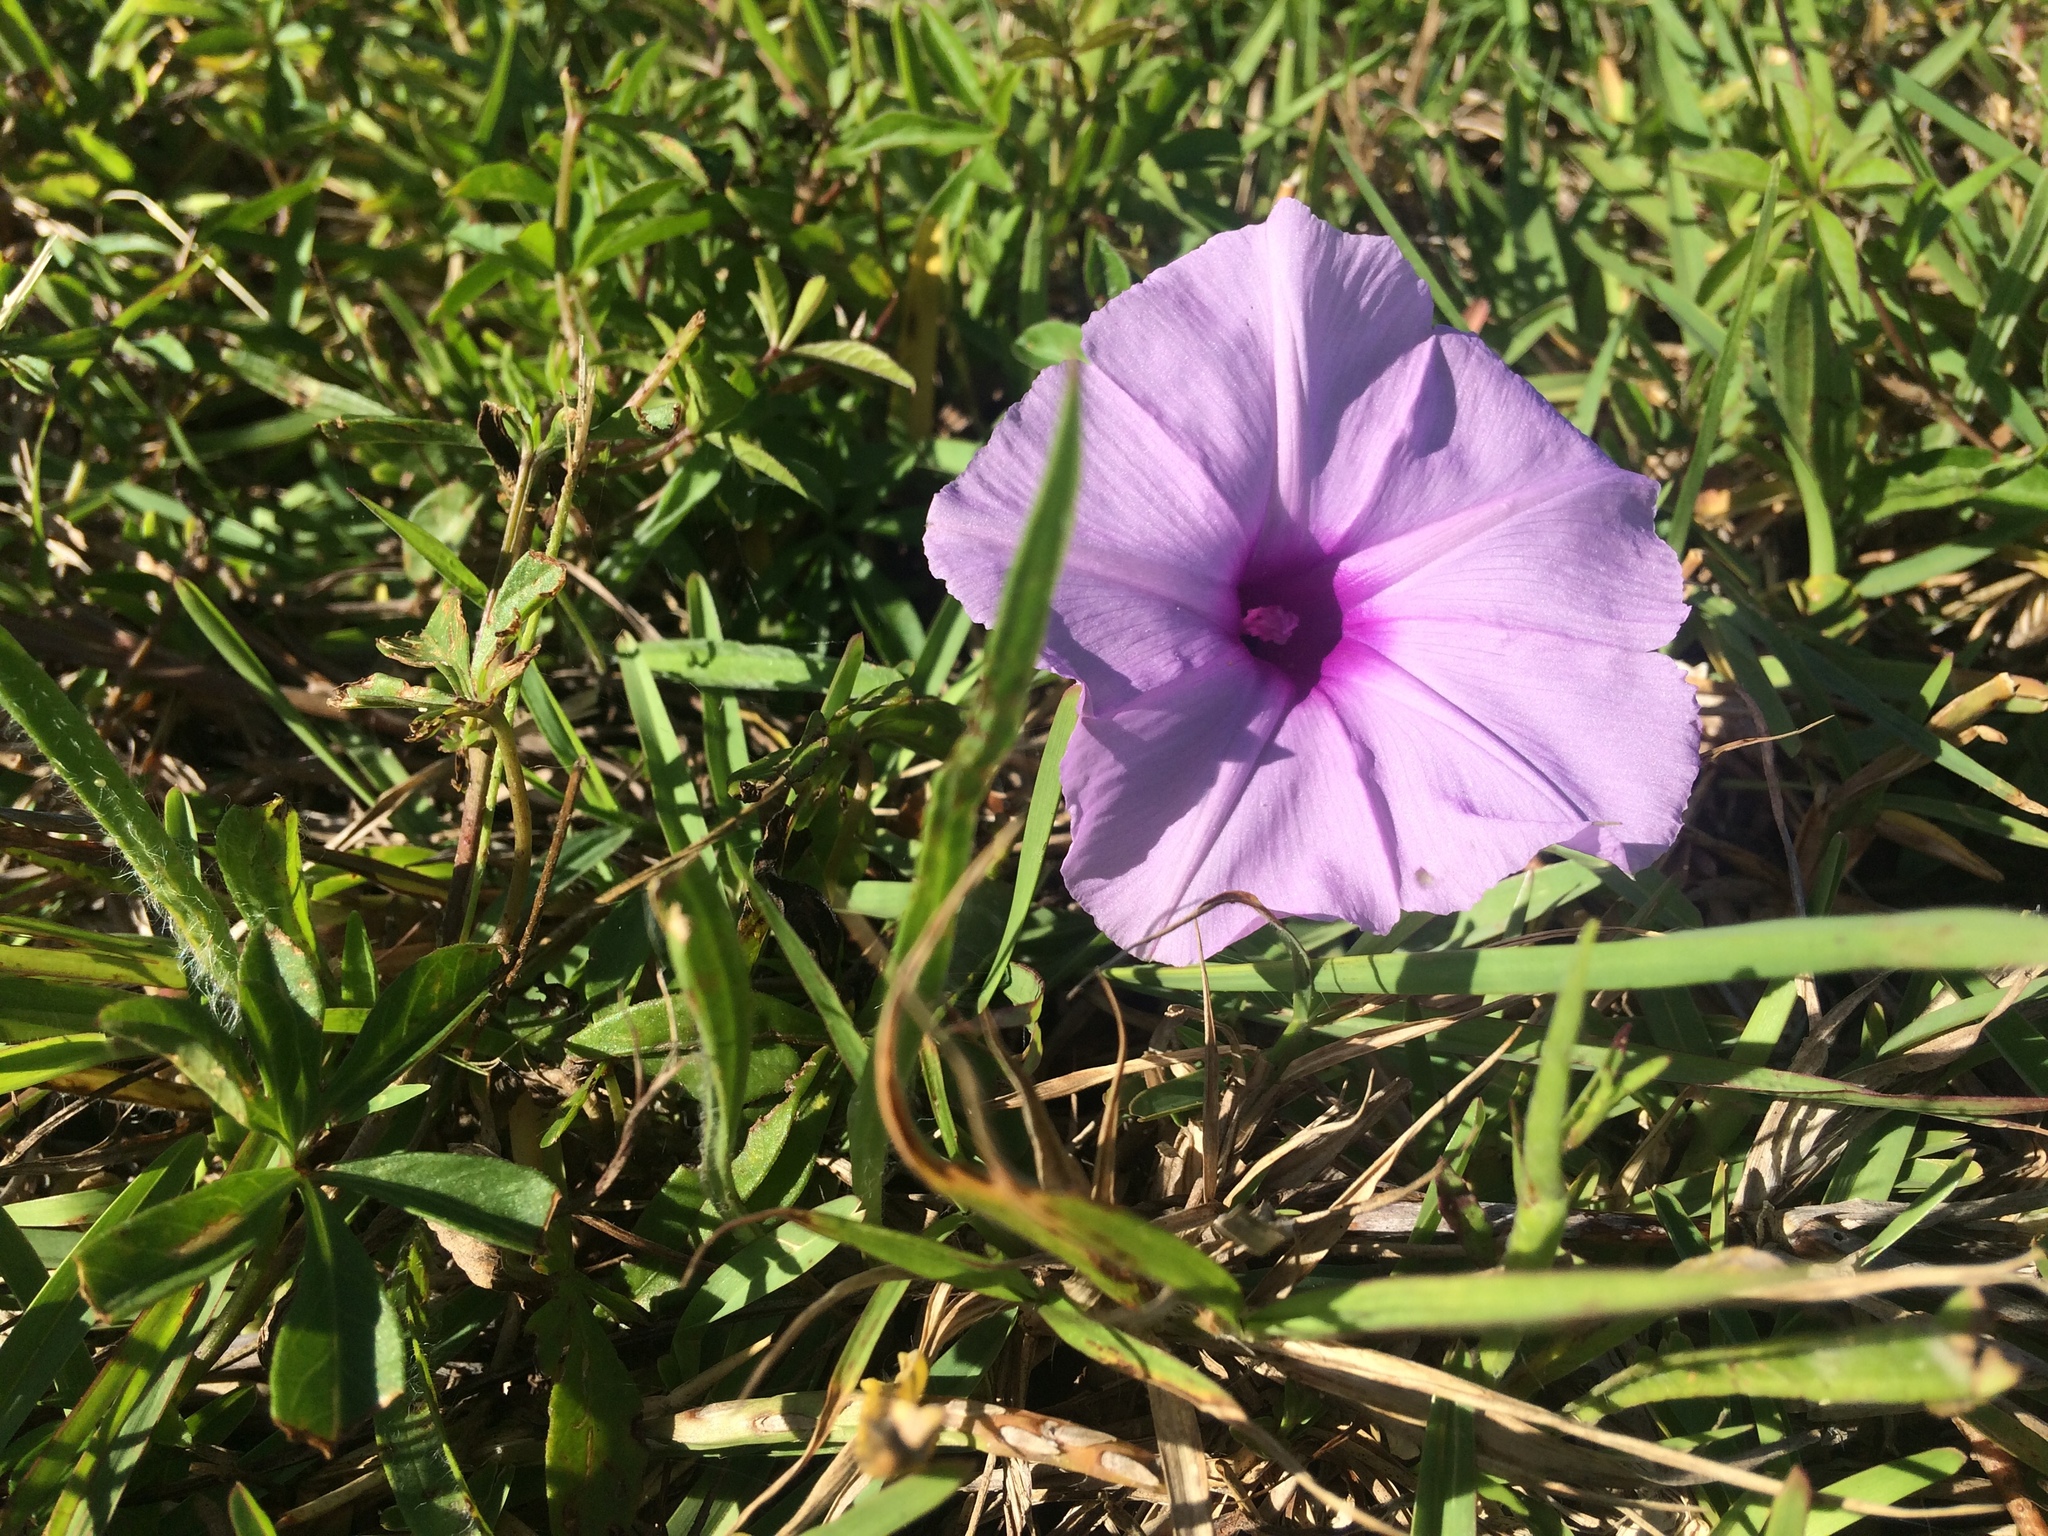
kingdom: Plantae
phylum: Tracheophyta
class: Magnoliopsida
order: Solanales
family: Convolvulaceae
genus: Ipomoea
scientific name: Ipomoea cairica
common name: Mile a minute vine
